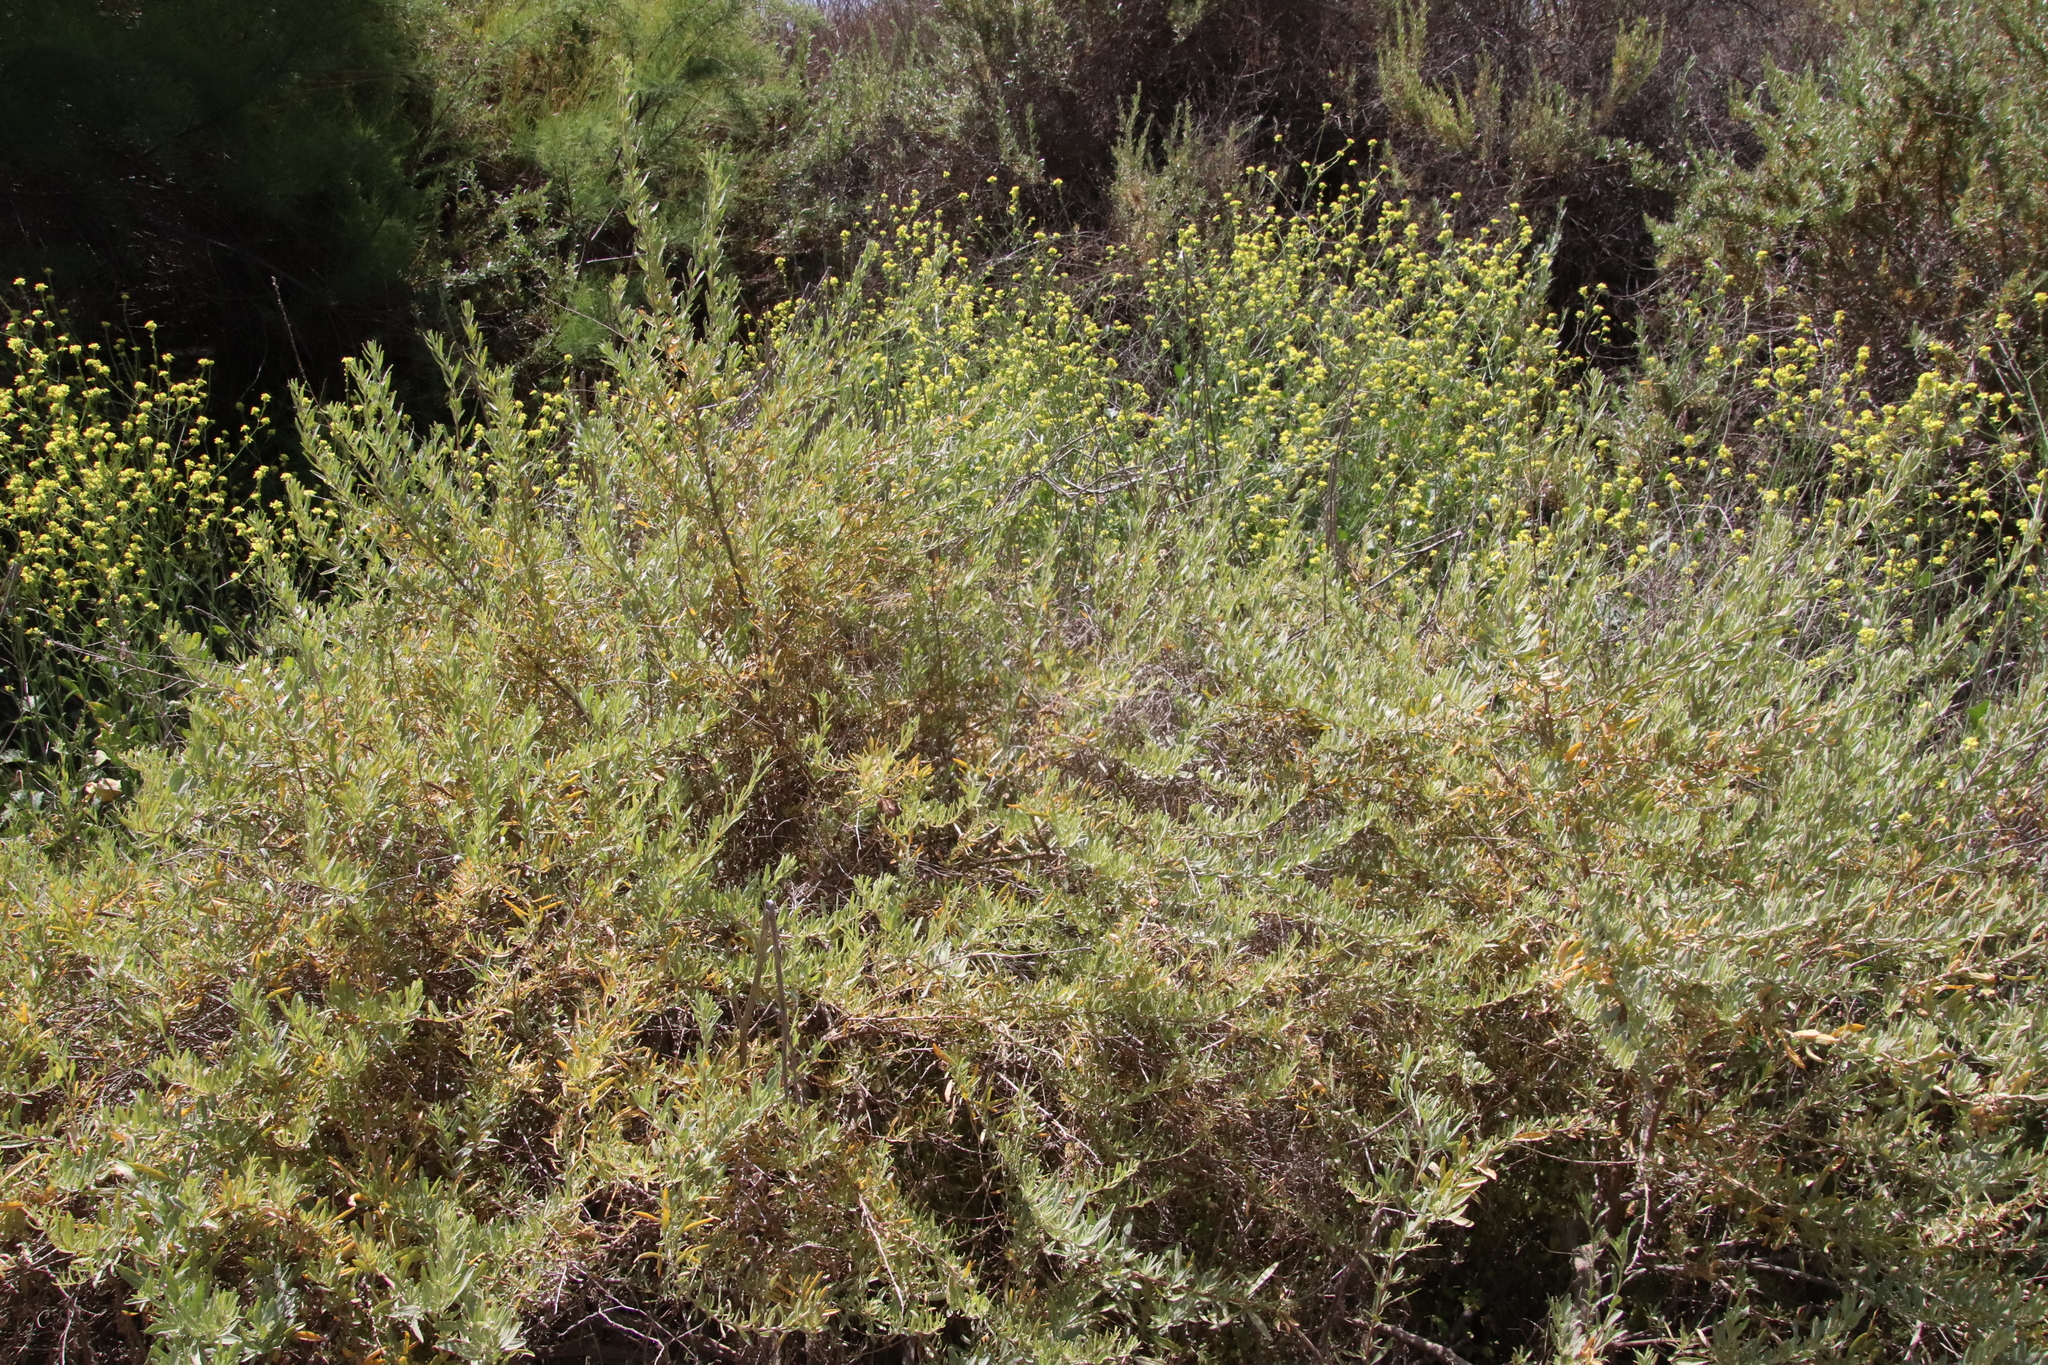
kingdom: Plantae
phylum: Tracheophyta
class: Magnoliopsida
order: Caryophyllales
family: Amaranthaceae
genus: Atriplex
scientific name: Atriplex canescens
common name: Four-wing saltbush
